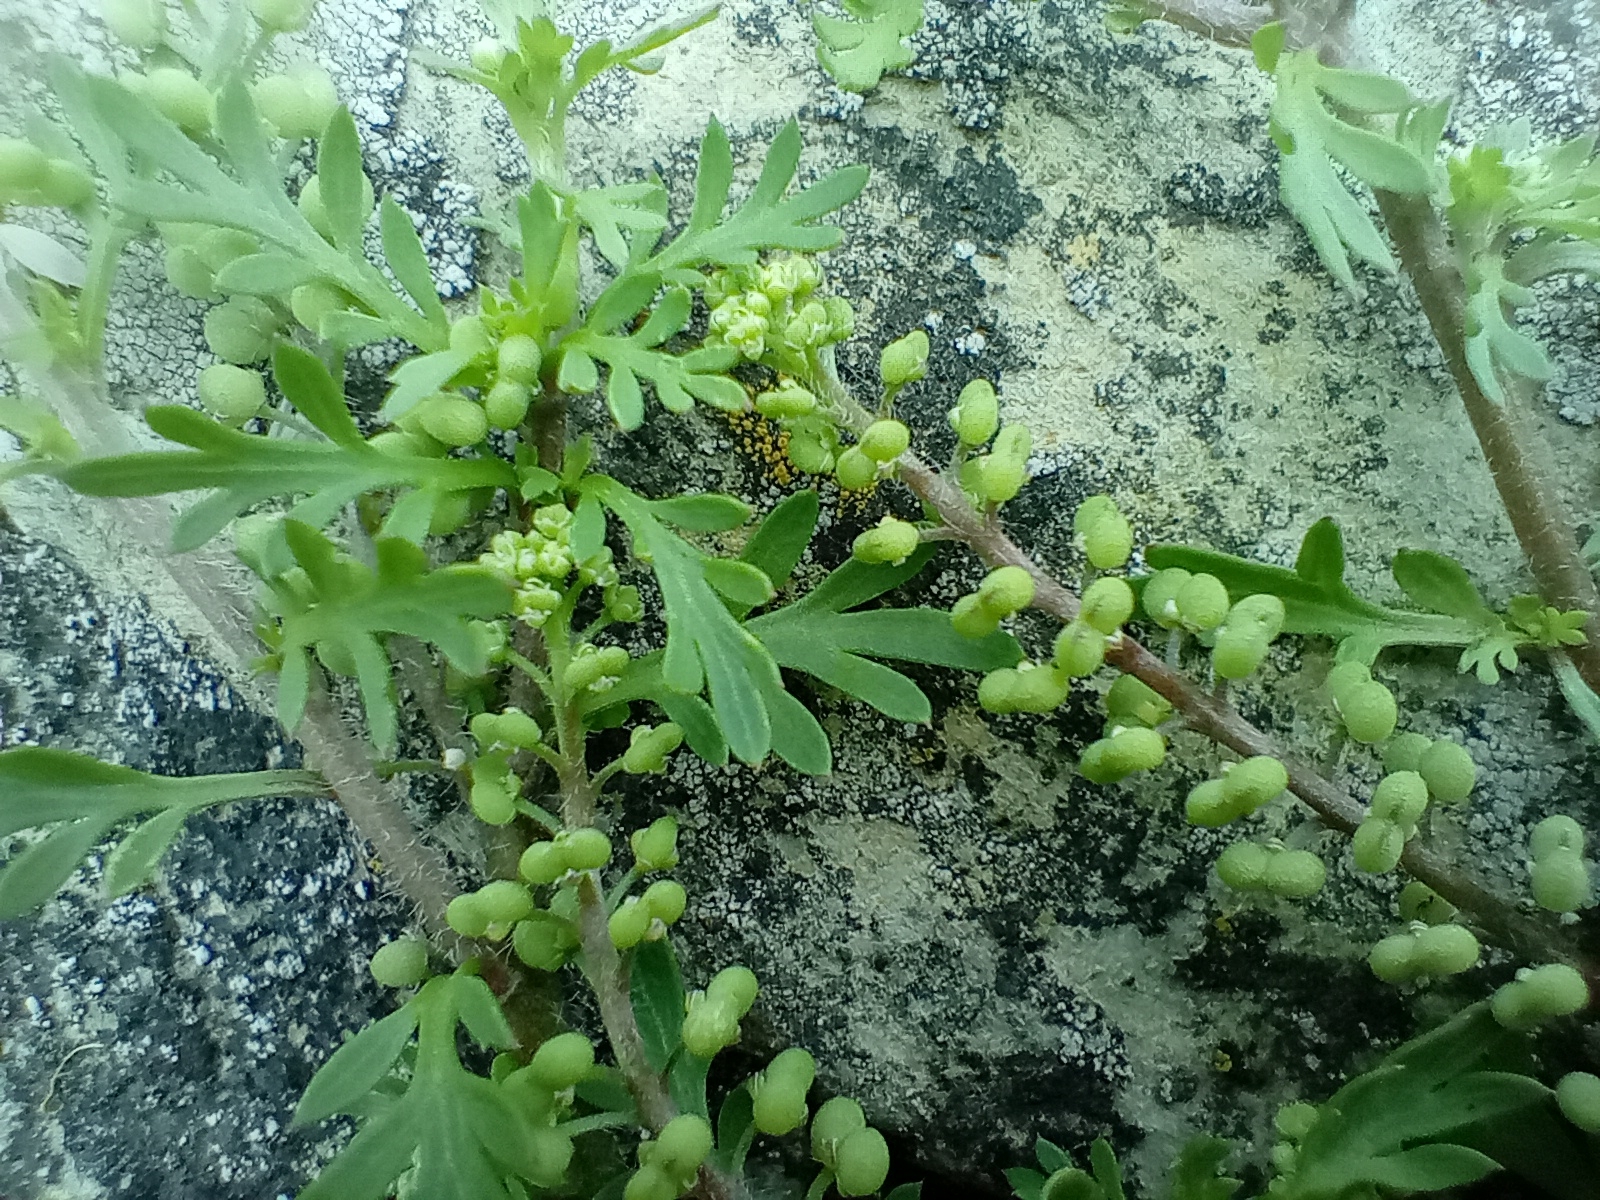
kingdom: Plantae
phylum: Tracheophyta
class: Magnoliopsida
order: Brassicales
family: Brassicaceae
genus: Lepidium
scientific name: Lepidium didymum
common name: Lesser swinecress
